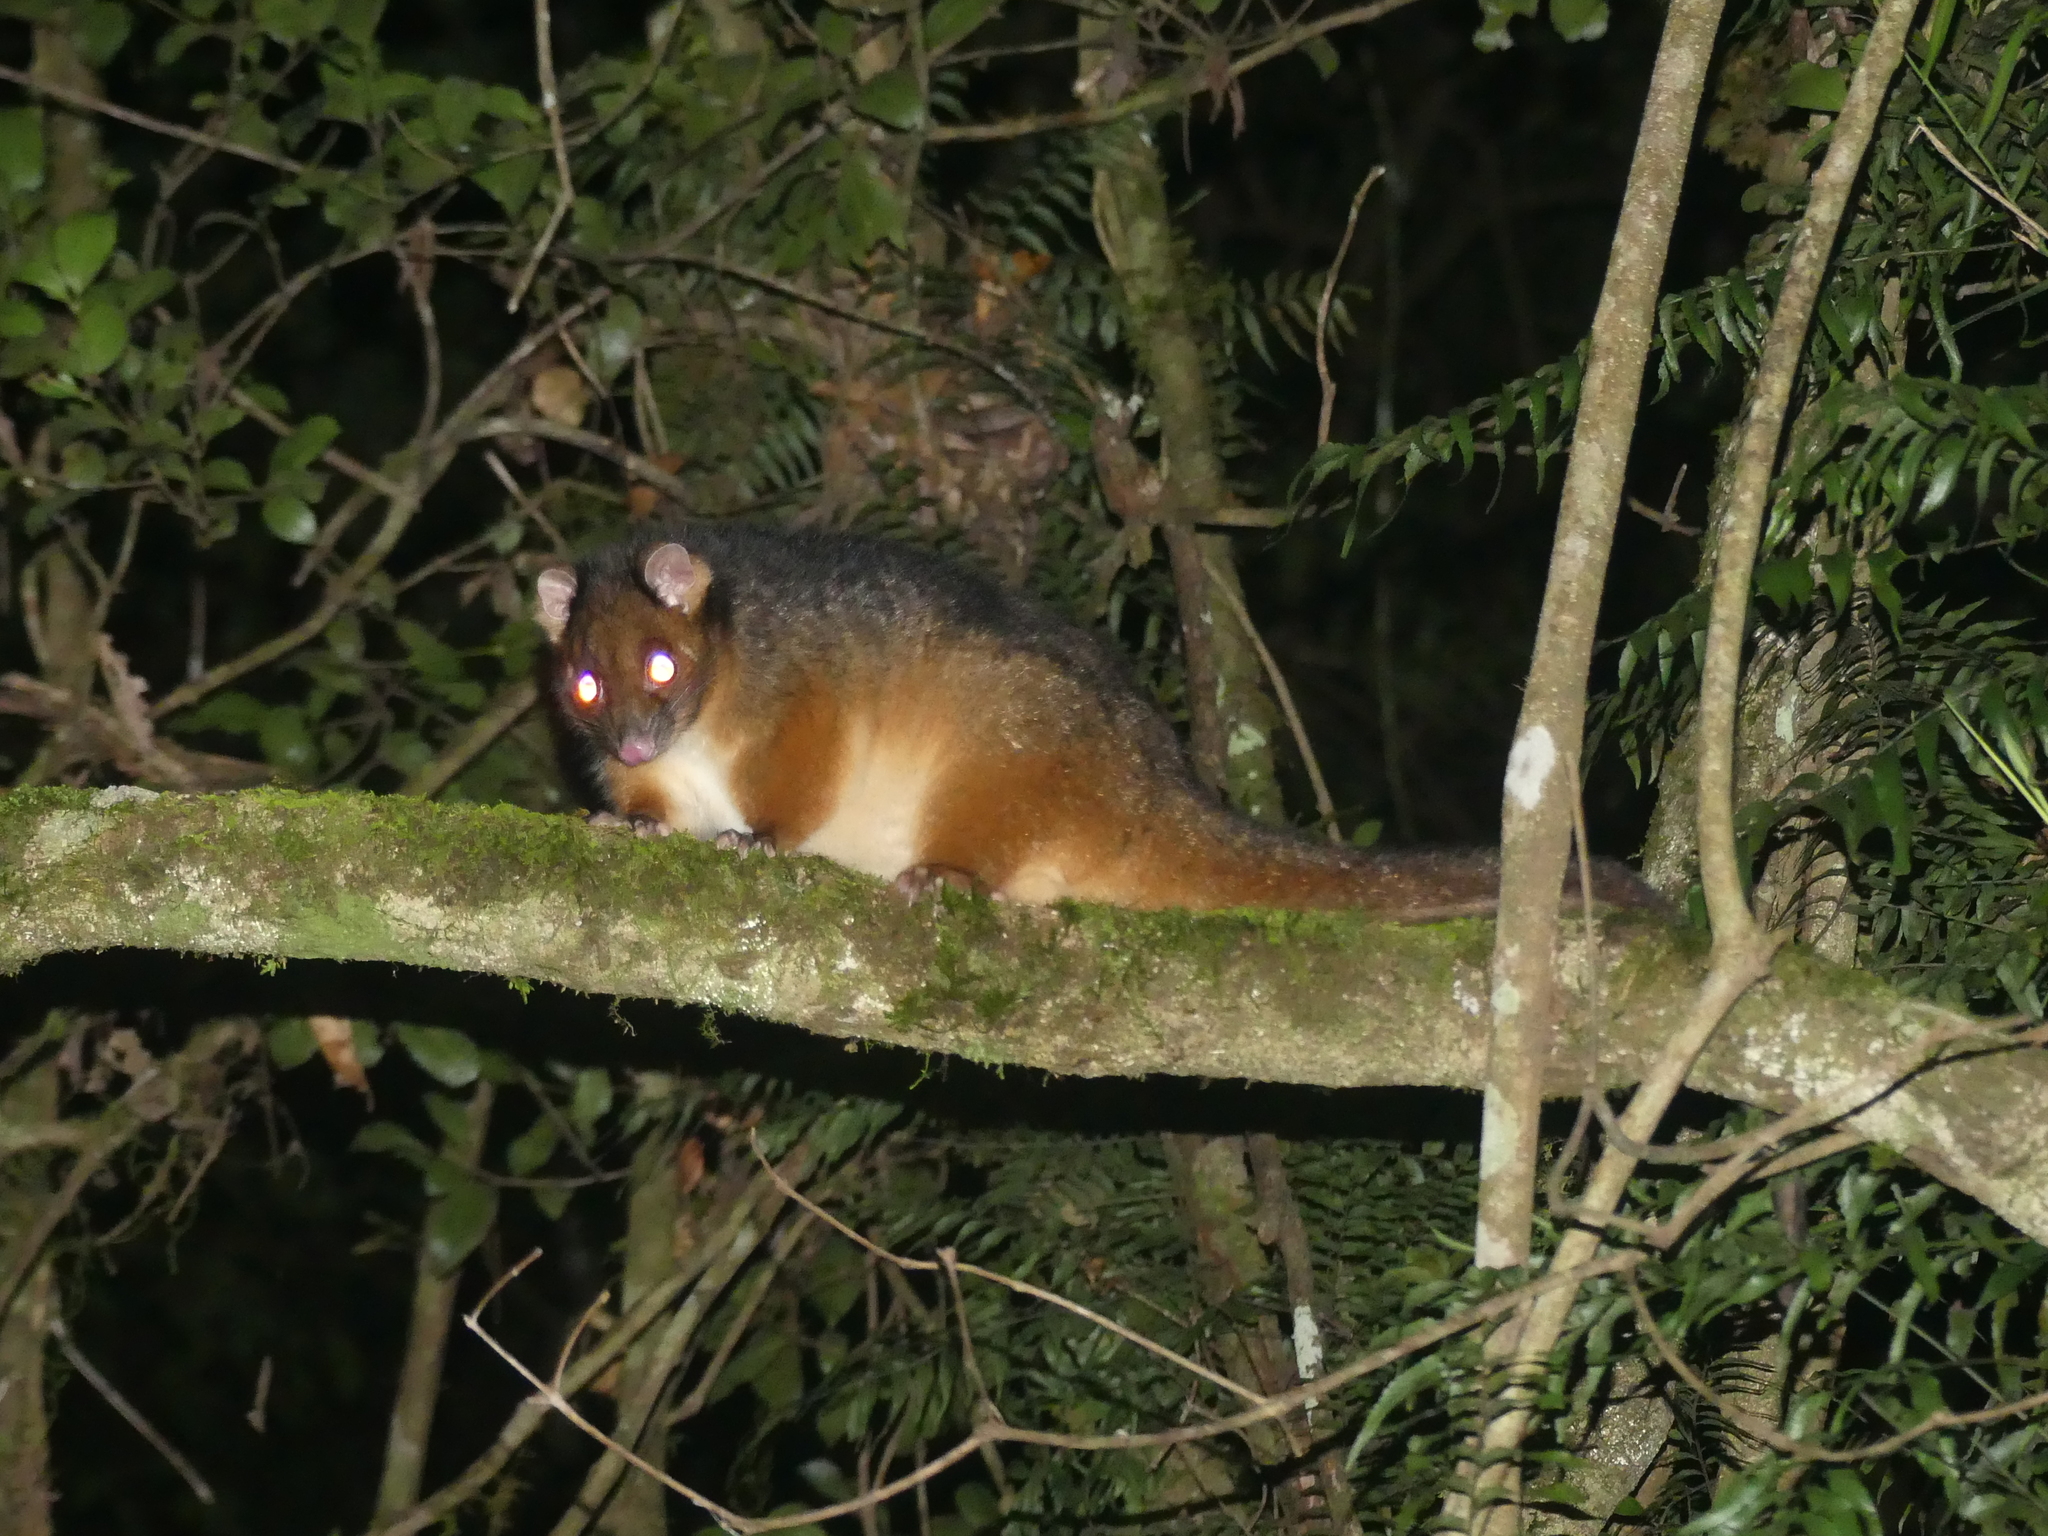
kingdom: Animalia
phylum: Chordata
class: Mammalia
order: Diprotodontia
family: Pseudocheiridae
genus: Pseudocheirus
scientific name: Pseudocheirus peregrinus
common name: Common ringtail possum
